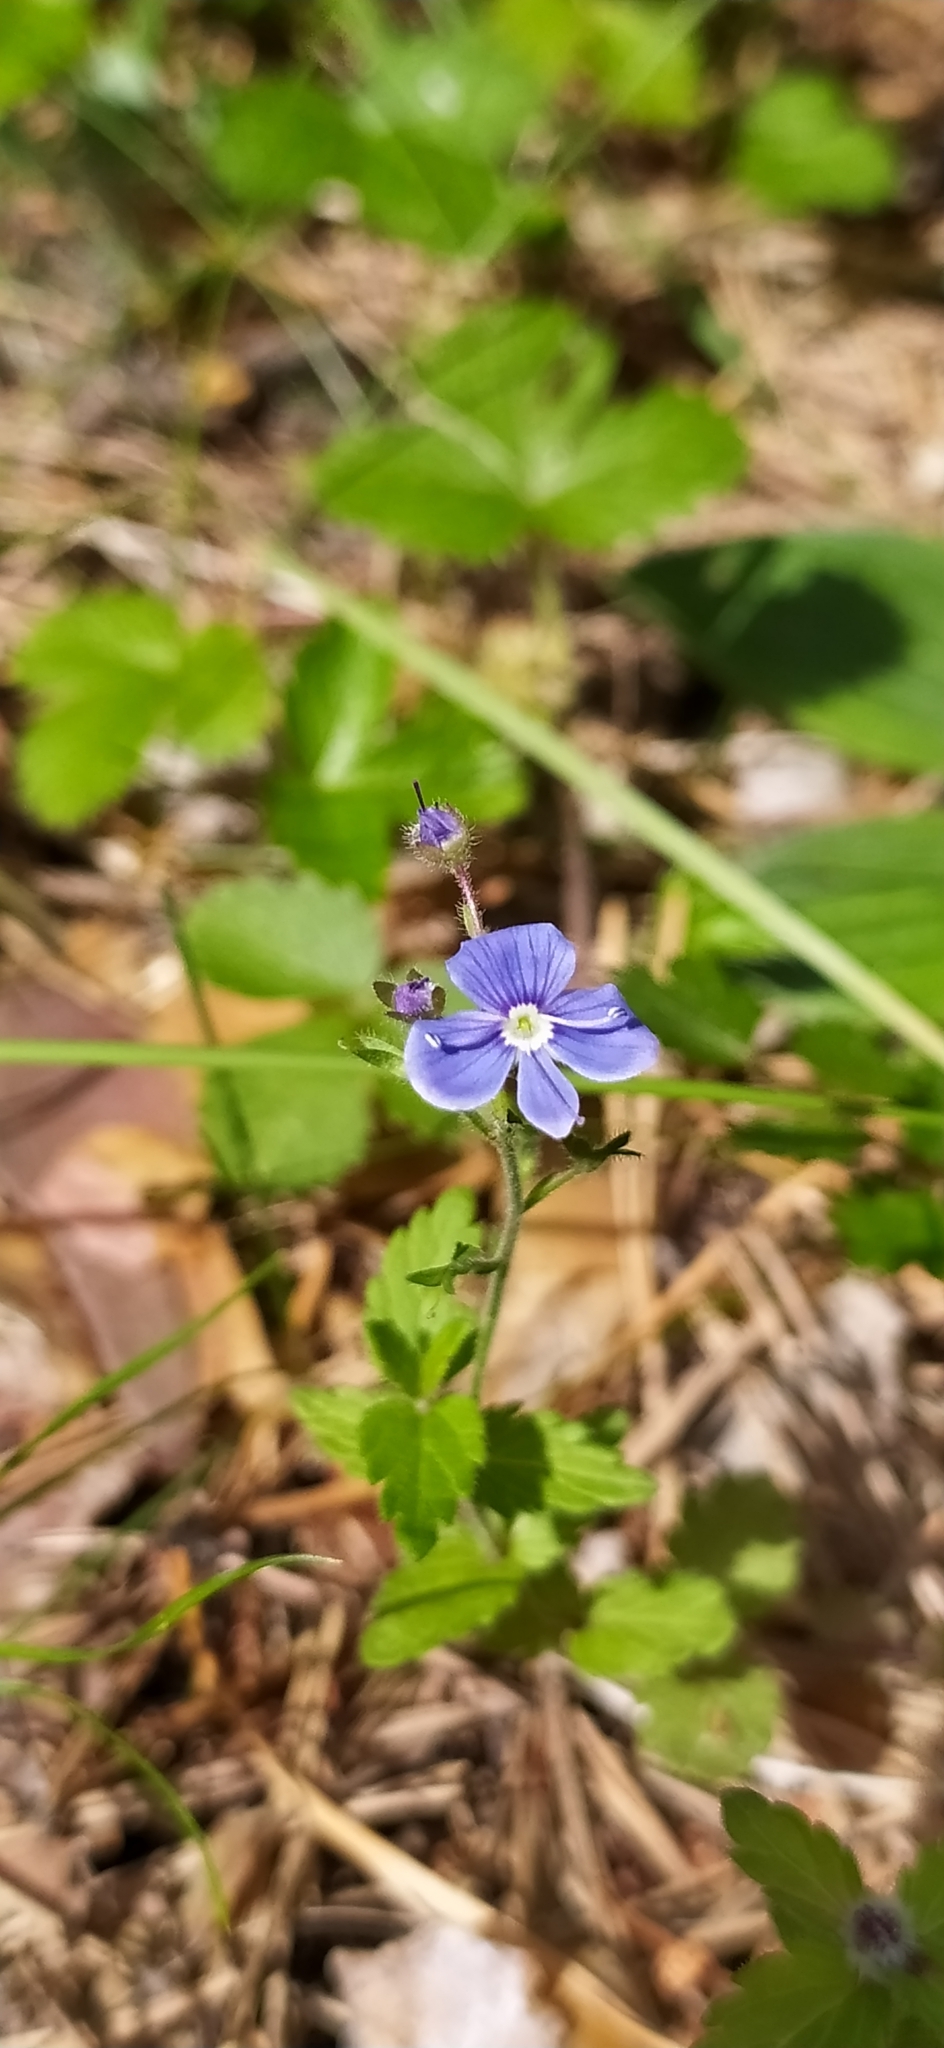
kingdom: Plantae
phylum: Tracheophyta
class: Magnoliopsida
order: Lamiales
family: Plantaginaceae
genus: Veronica
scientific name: Veronica chamaedrys
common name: Germander speedwell
